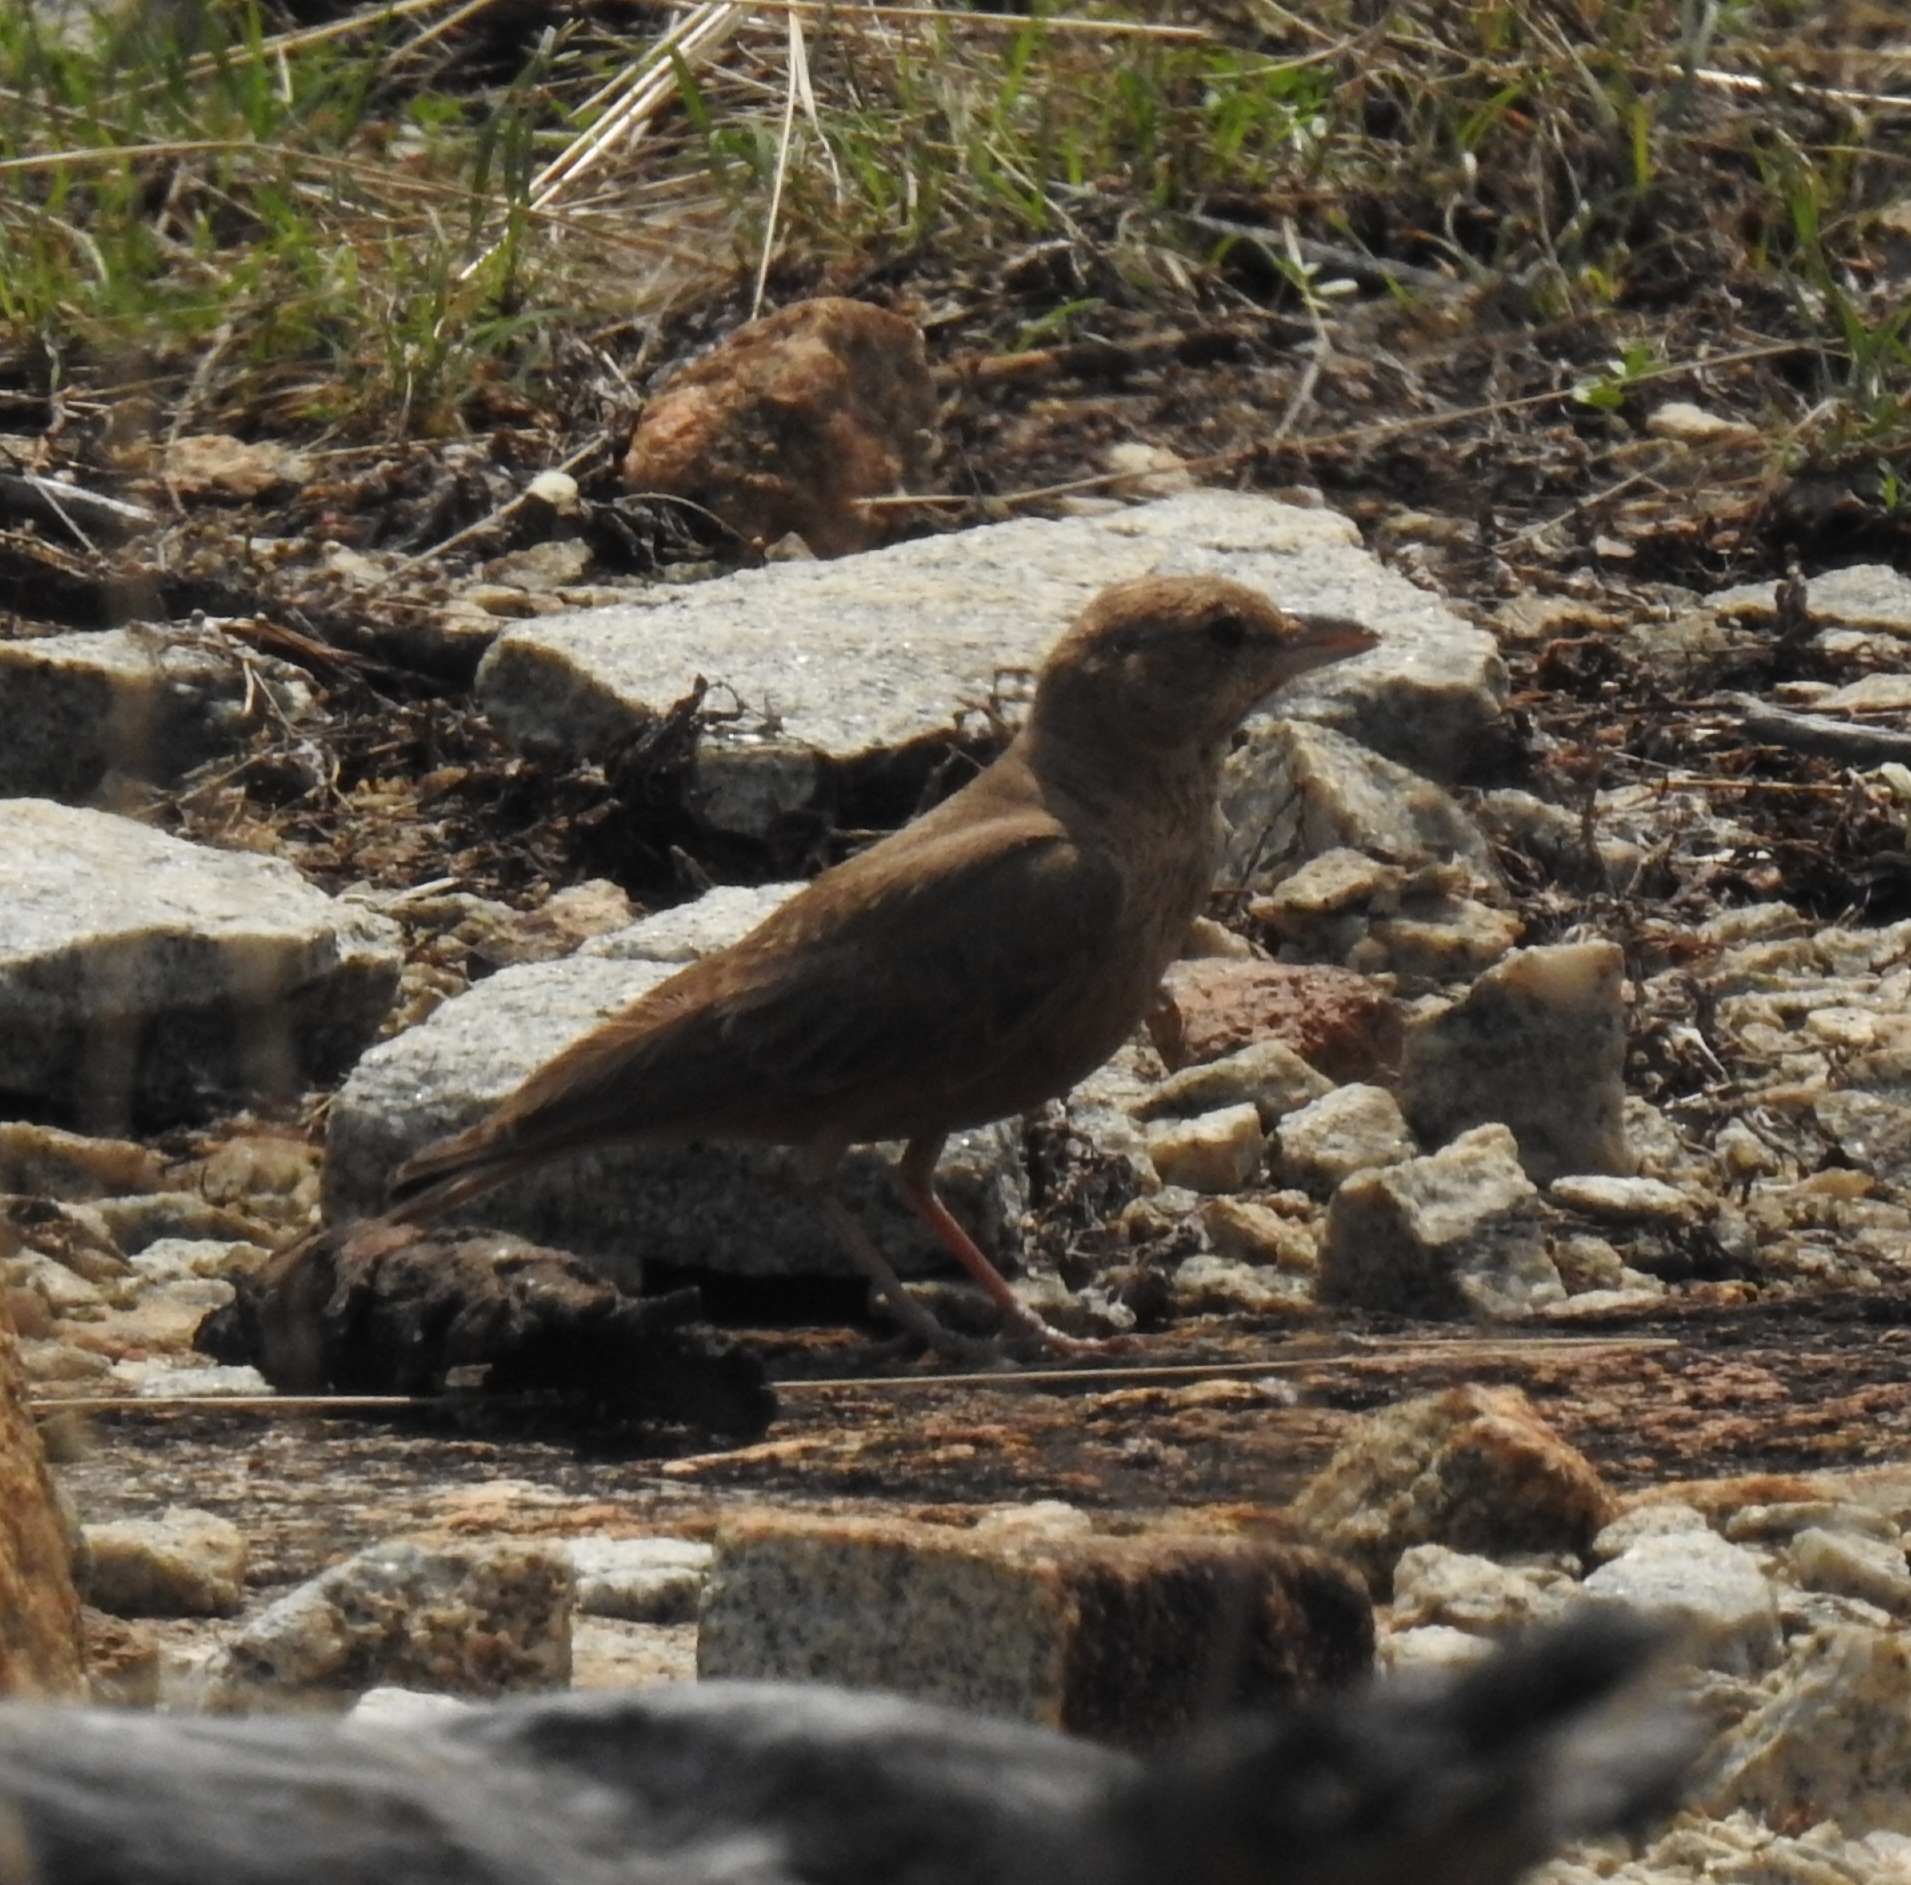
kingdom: Animalia
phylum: Chordata
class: Aves
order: Passeriformes
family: Alaudidae
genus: Ammomanes
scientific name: Ammomanes phoenicura
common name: Rufous-tailed lark
